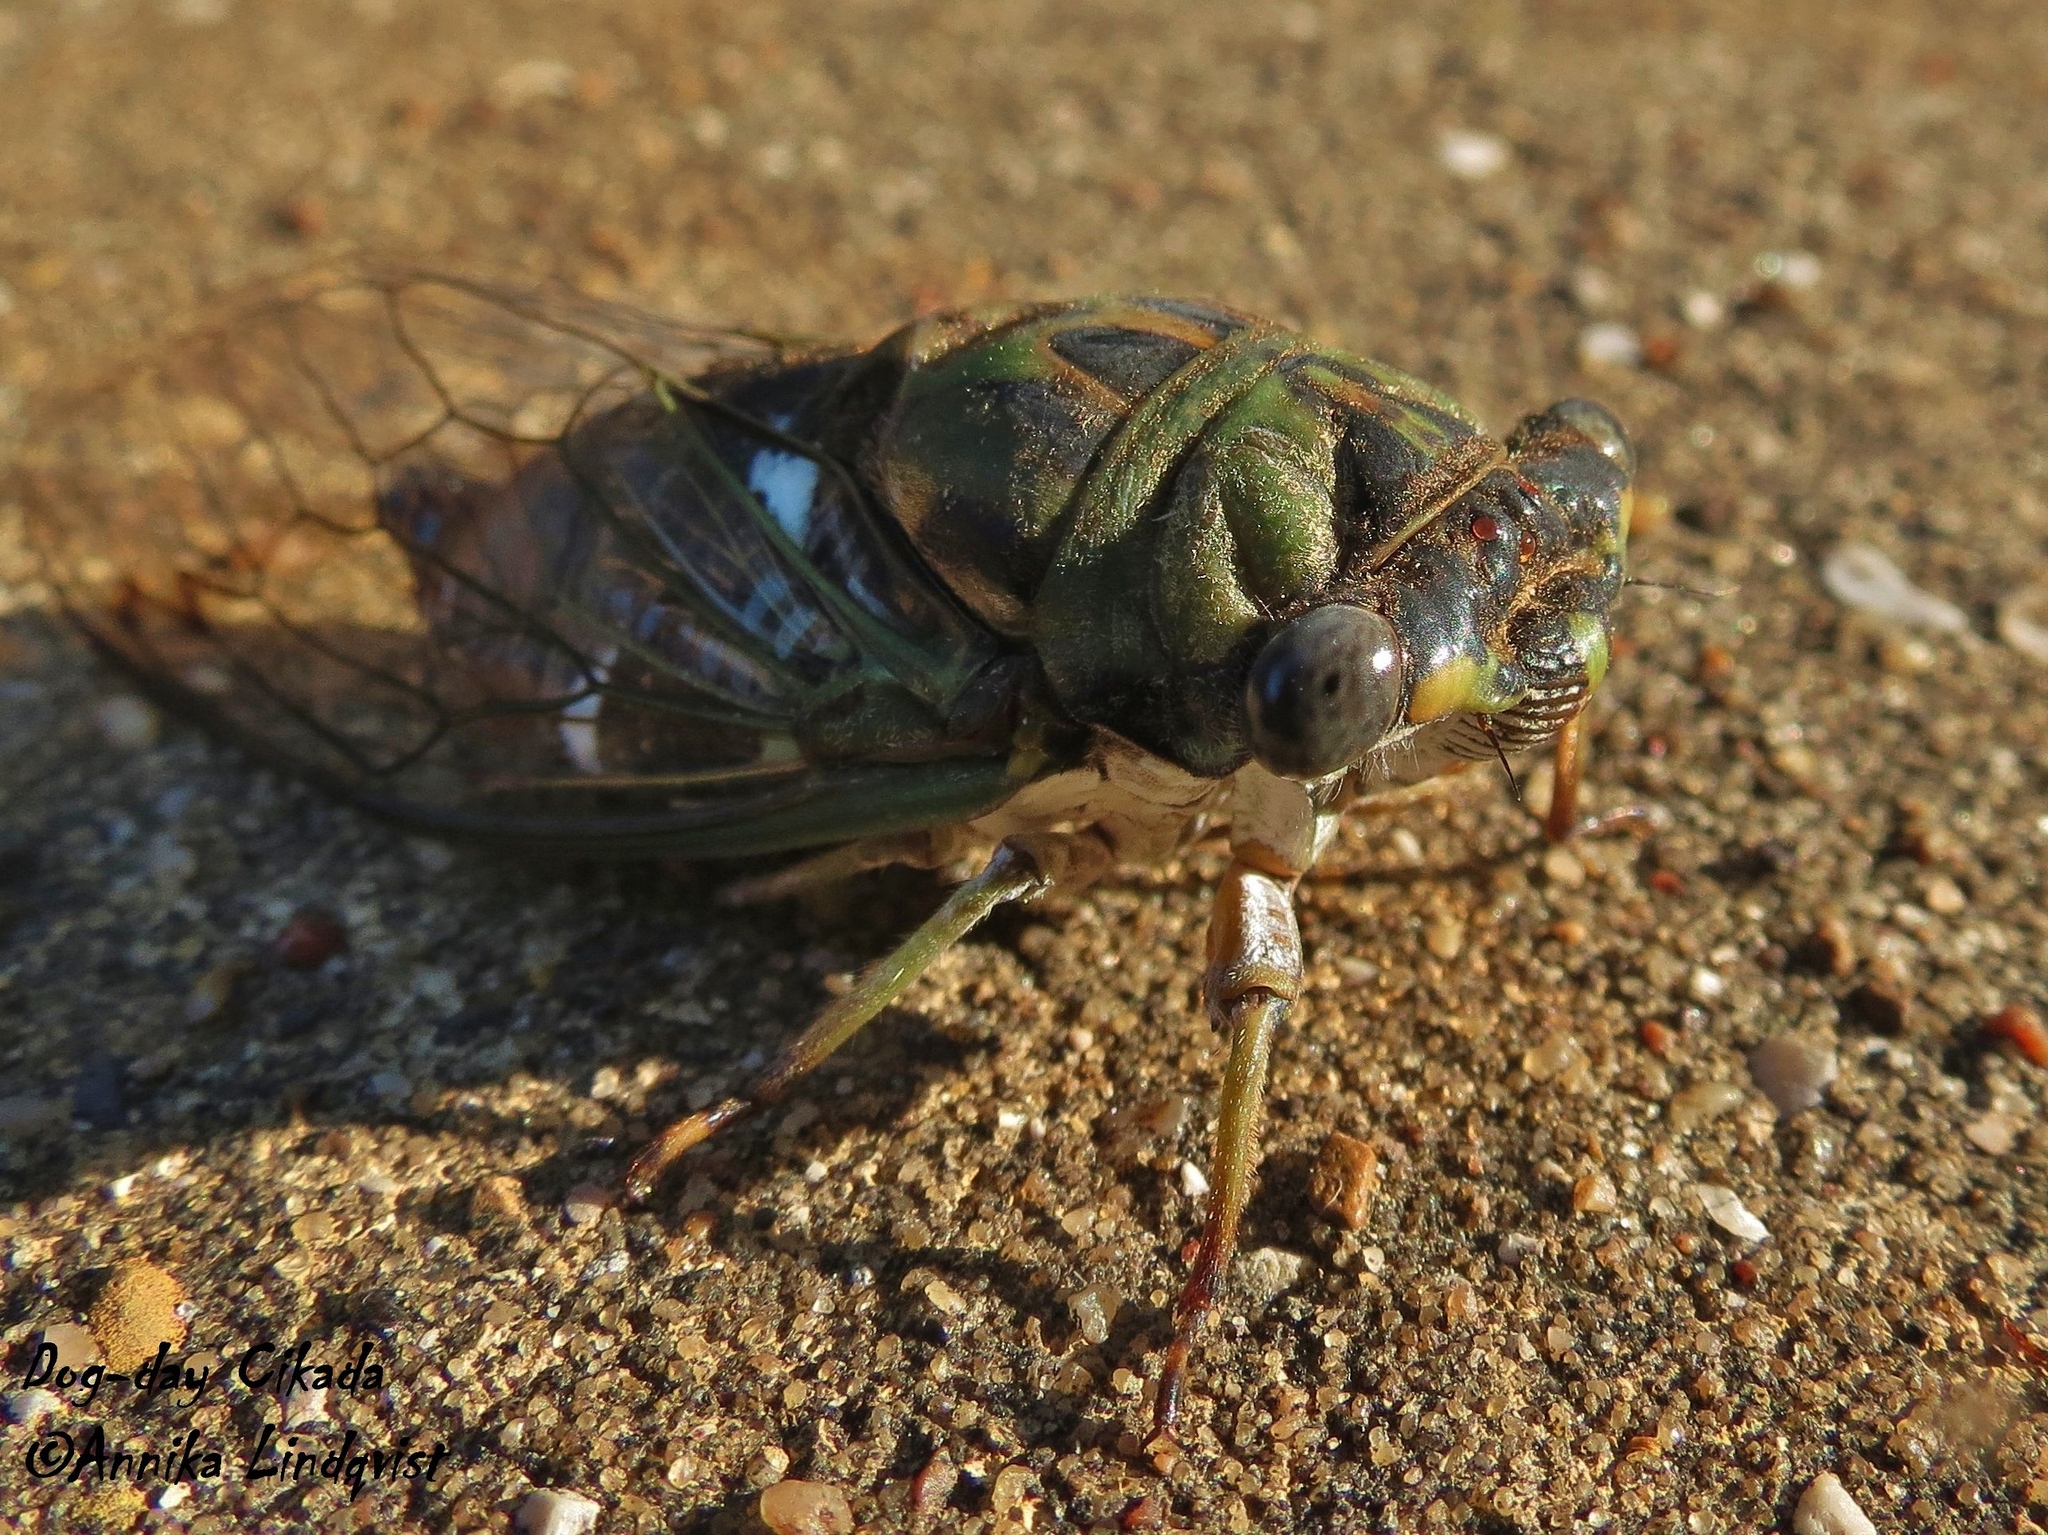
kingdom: Animalia
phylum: Arthropoda
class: Insecta
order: Hemiptera
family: Cicadidae
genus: Neotibicen
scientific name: Neotibicen pruinosus
